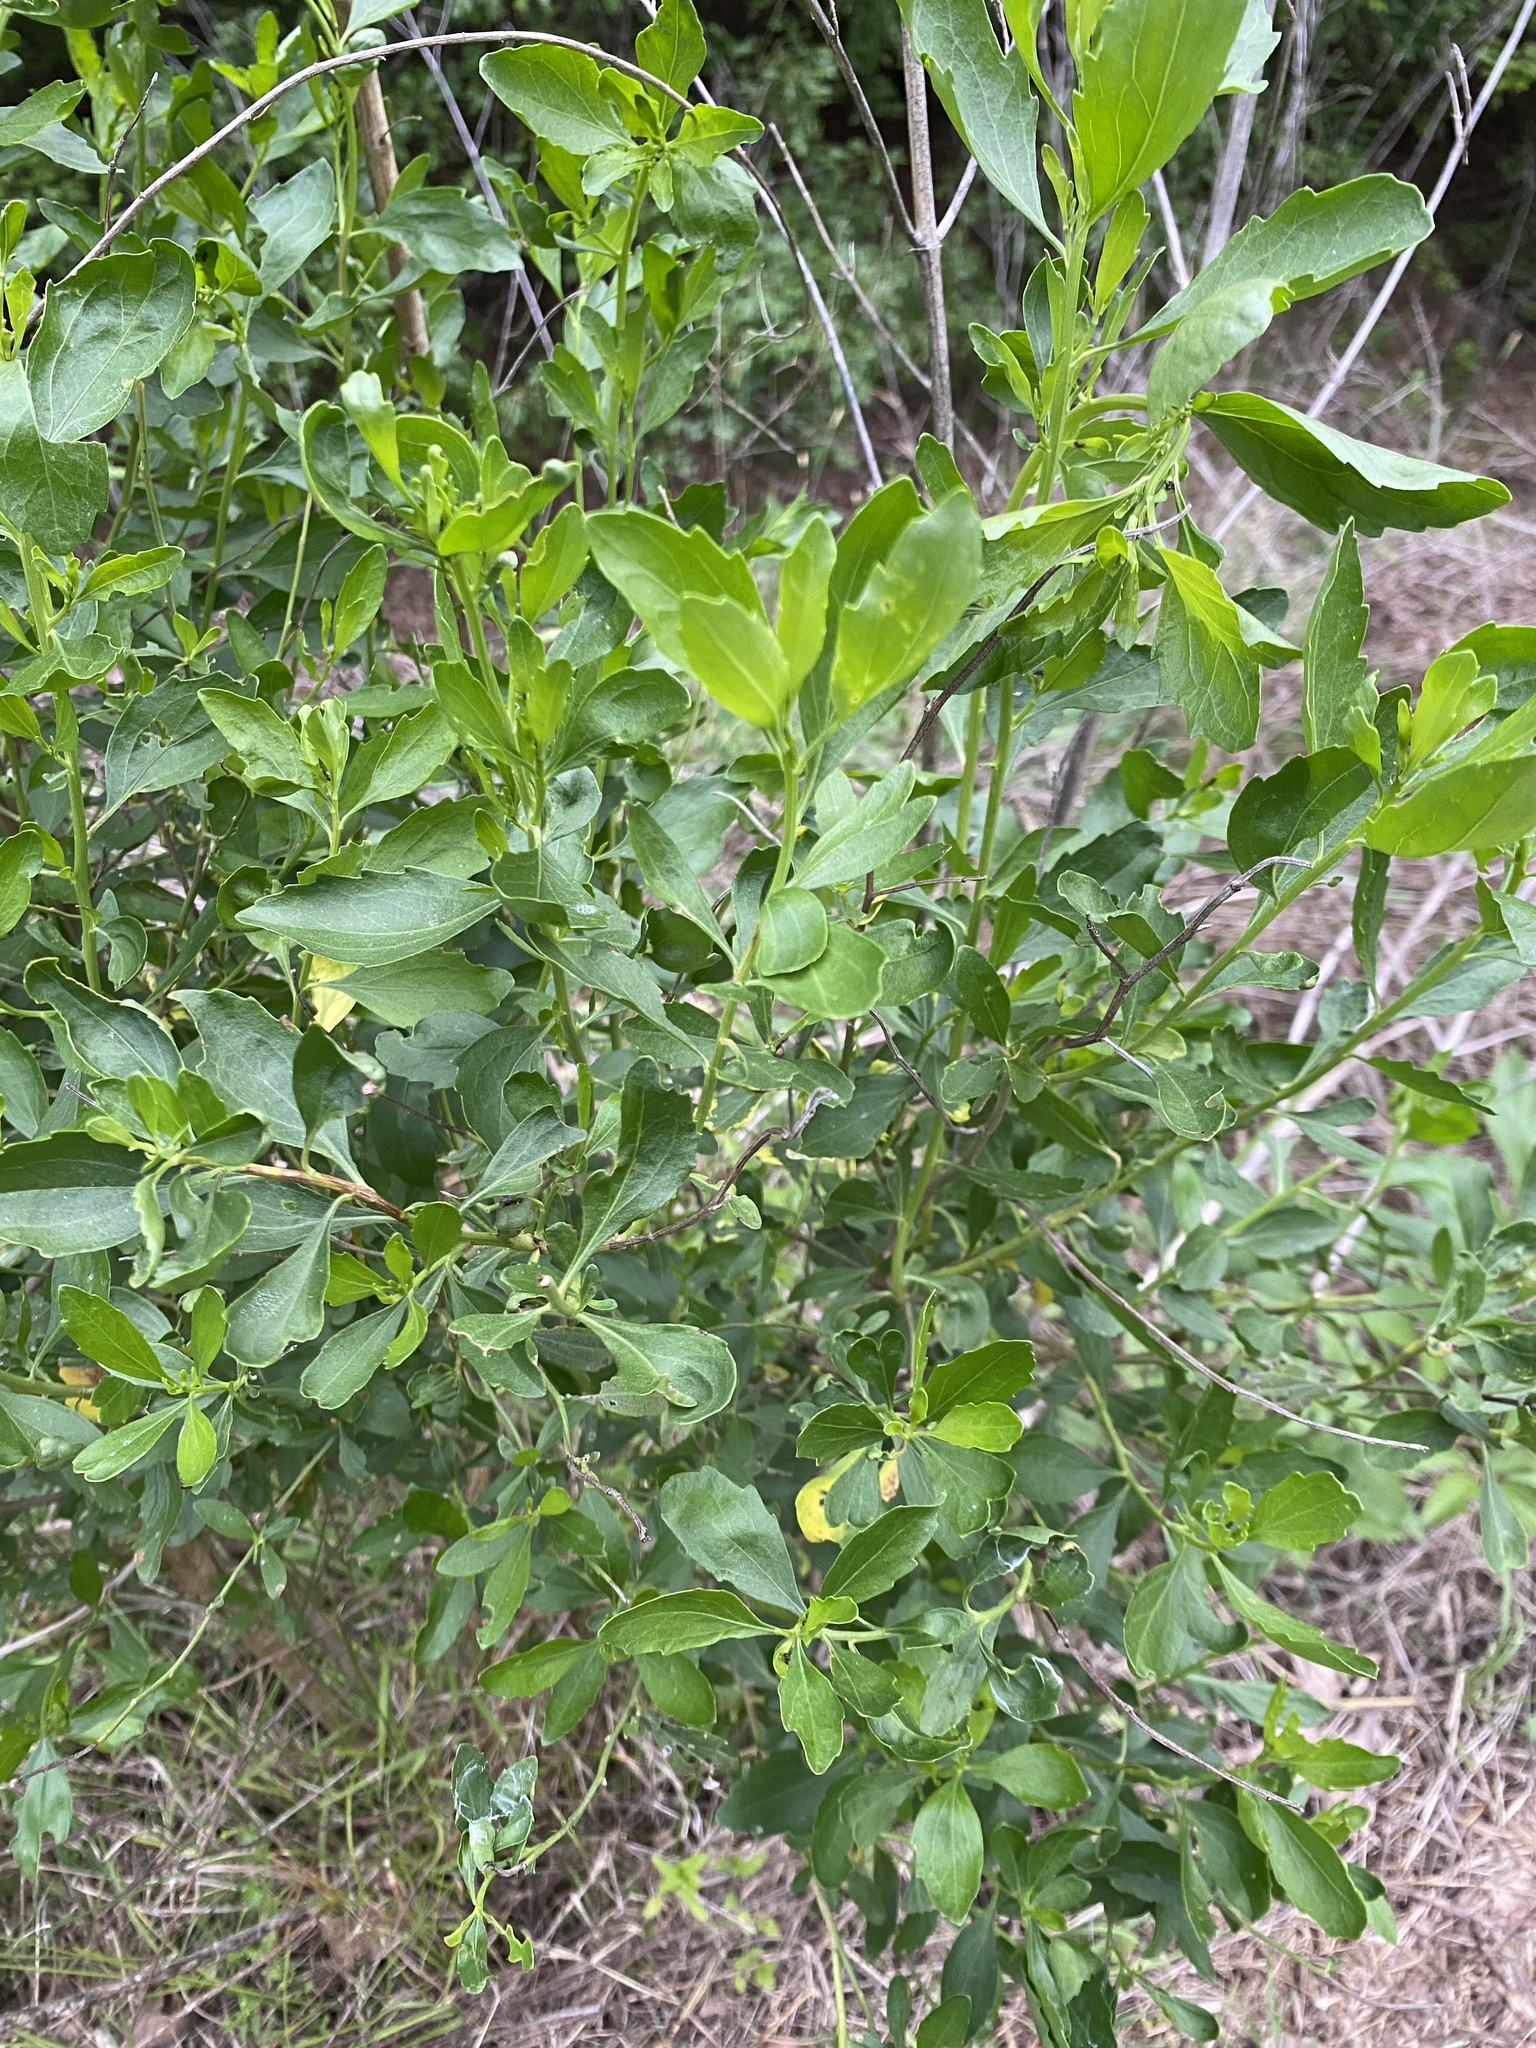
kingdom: Plantae
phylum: Tracheophyta
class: Magnoliopsida
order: Asterales
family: Asteraceae
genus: Baccharis
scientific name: Baccharis halimifolia
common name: Eastern baccharis
